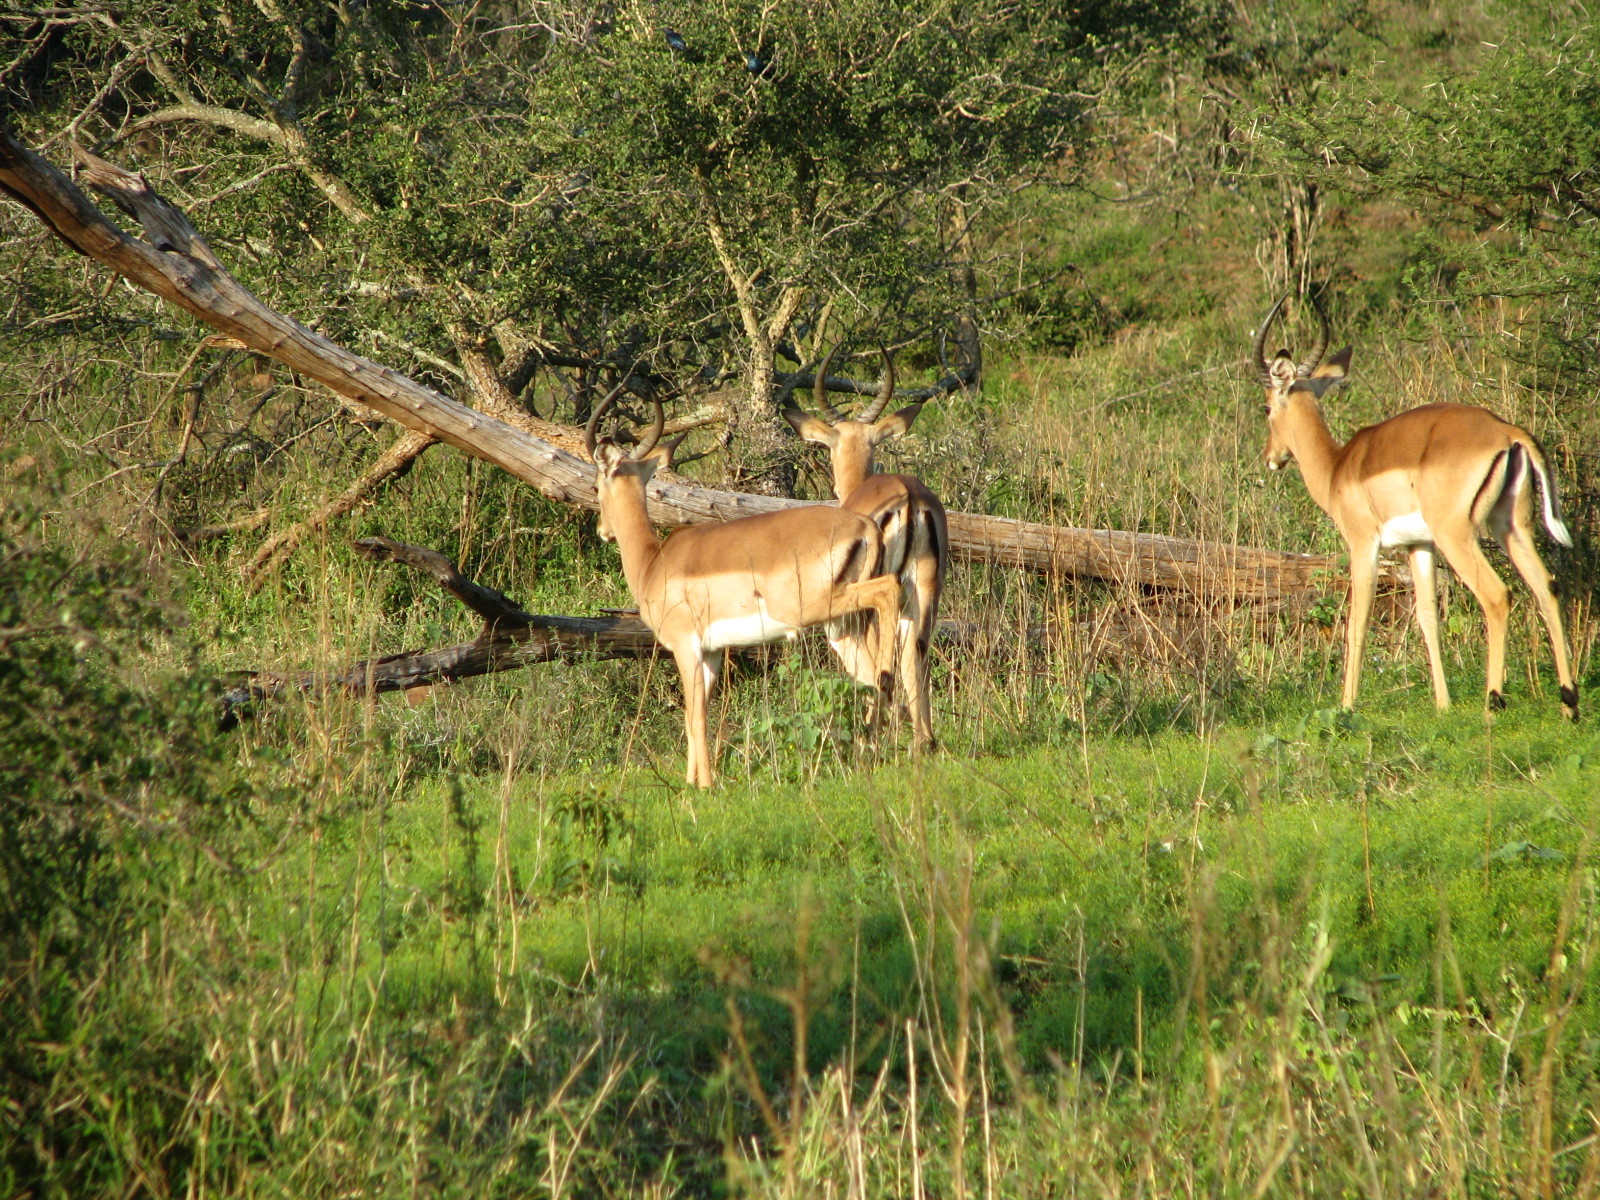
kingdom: Animalia
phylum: Chordata
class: Mammalia
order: Artiodactyla
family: Bovidae
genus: Aepyceros
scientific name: Aepyceros melampus
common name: Impala
